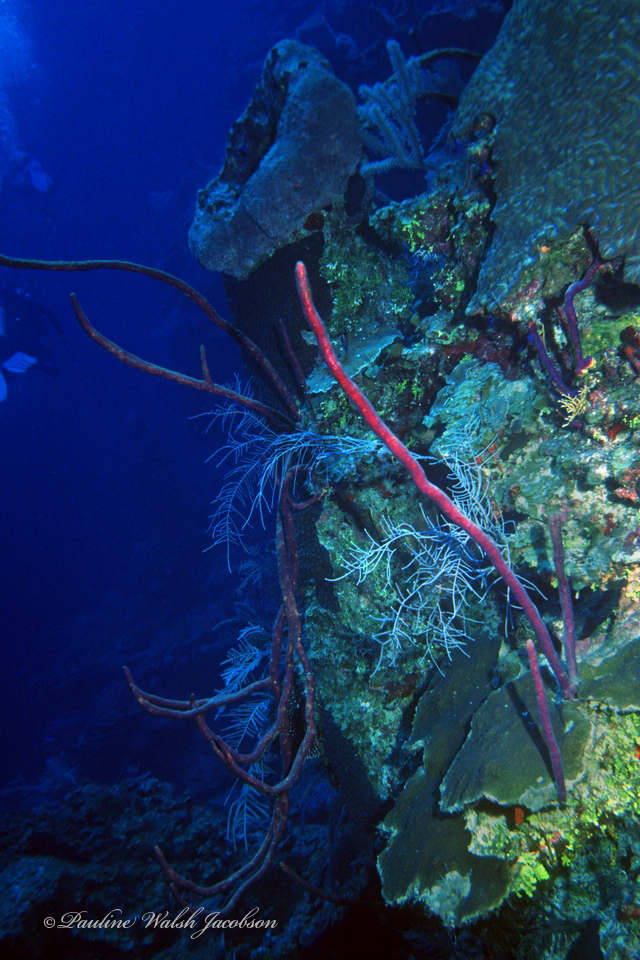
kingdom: Animalia
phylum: Porifera
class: Demospongiae
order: Verongiida
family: Aplysinidae
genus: Aplysina
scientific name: Aplysina cauliformis
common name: Branching candle sponge
